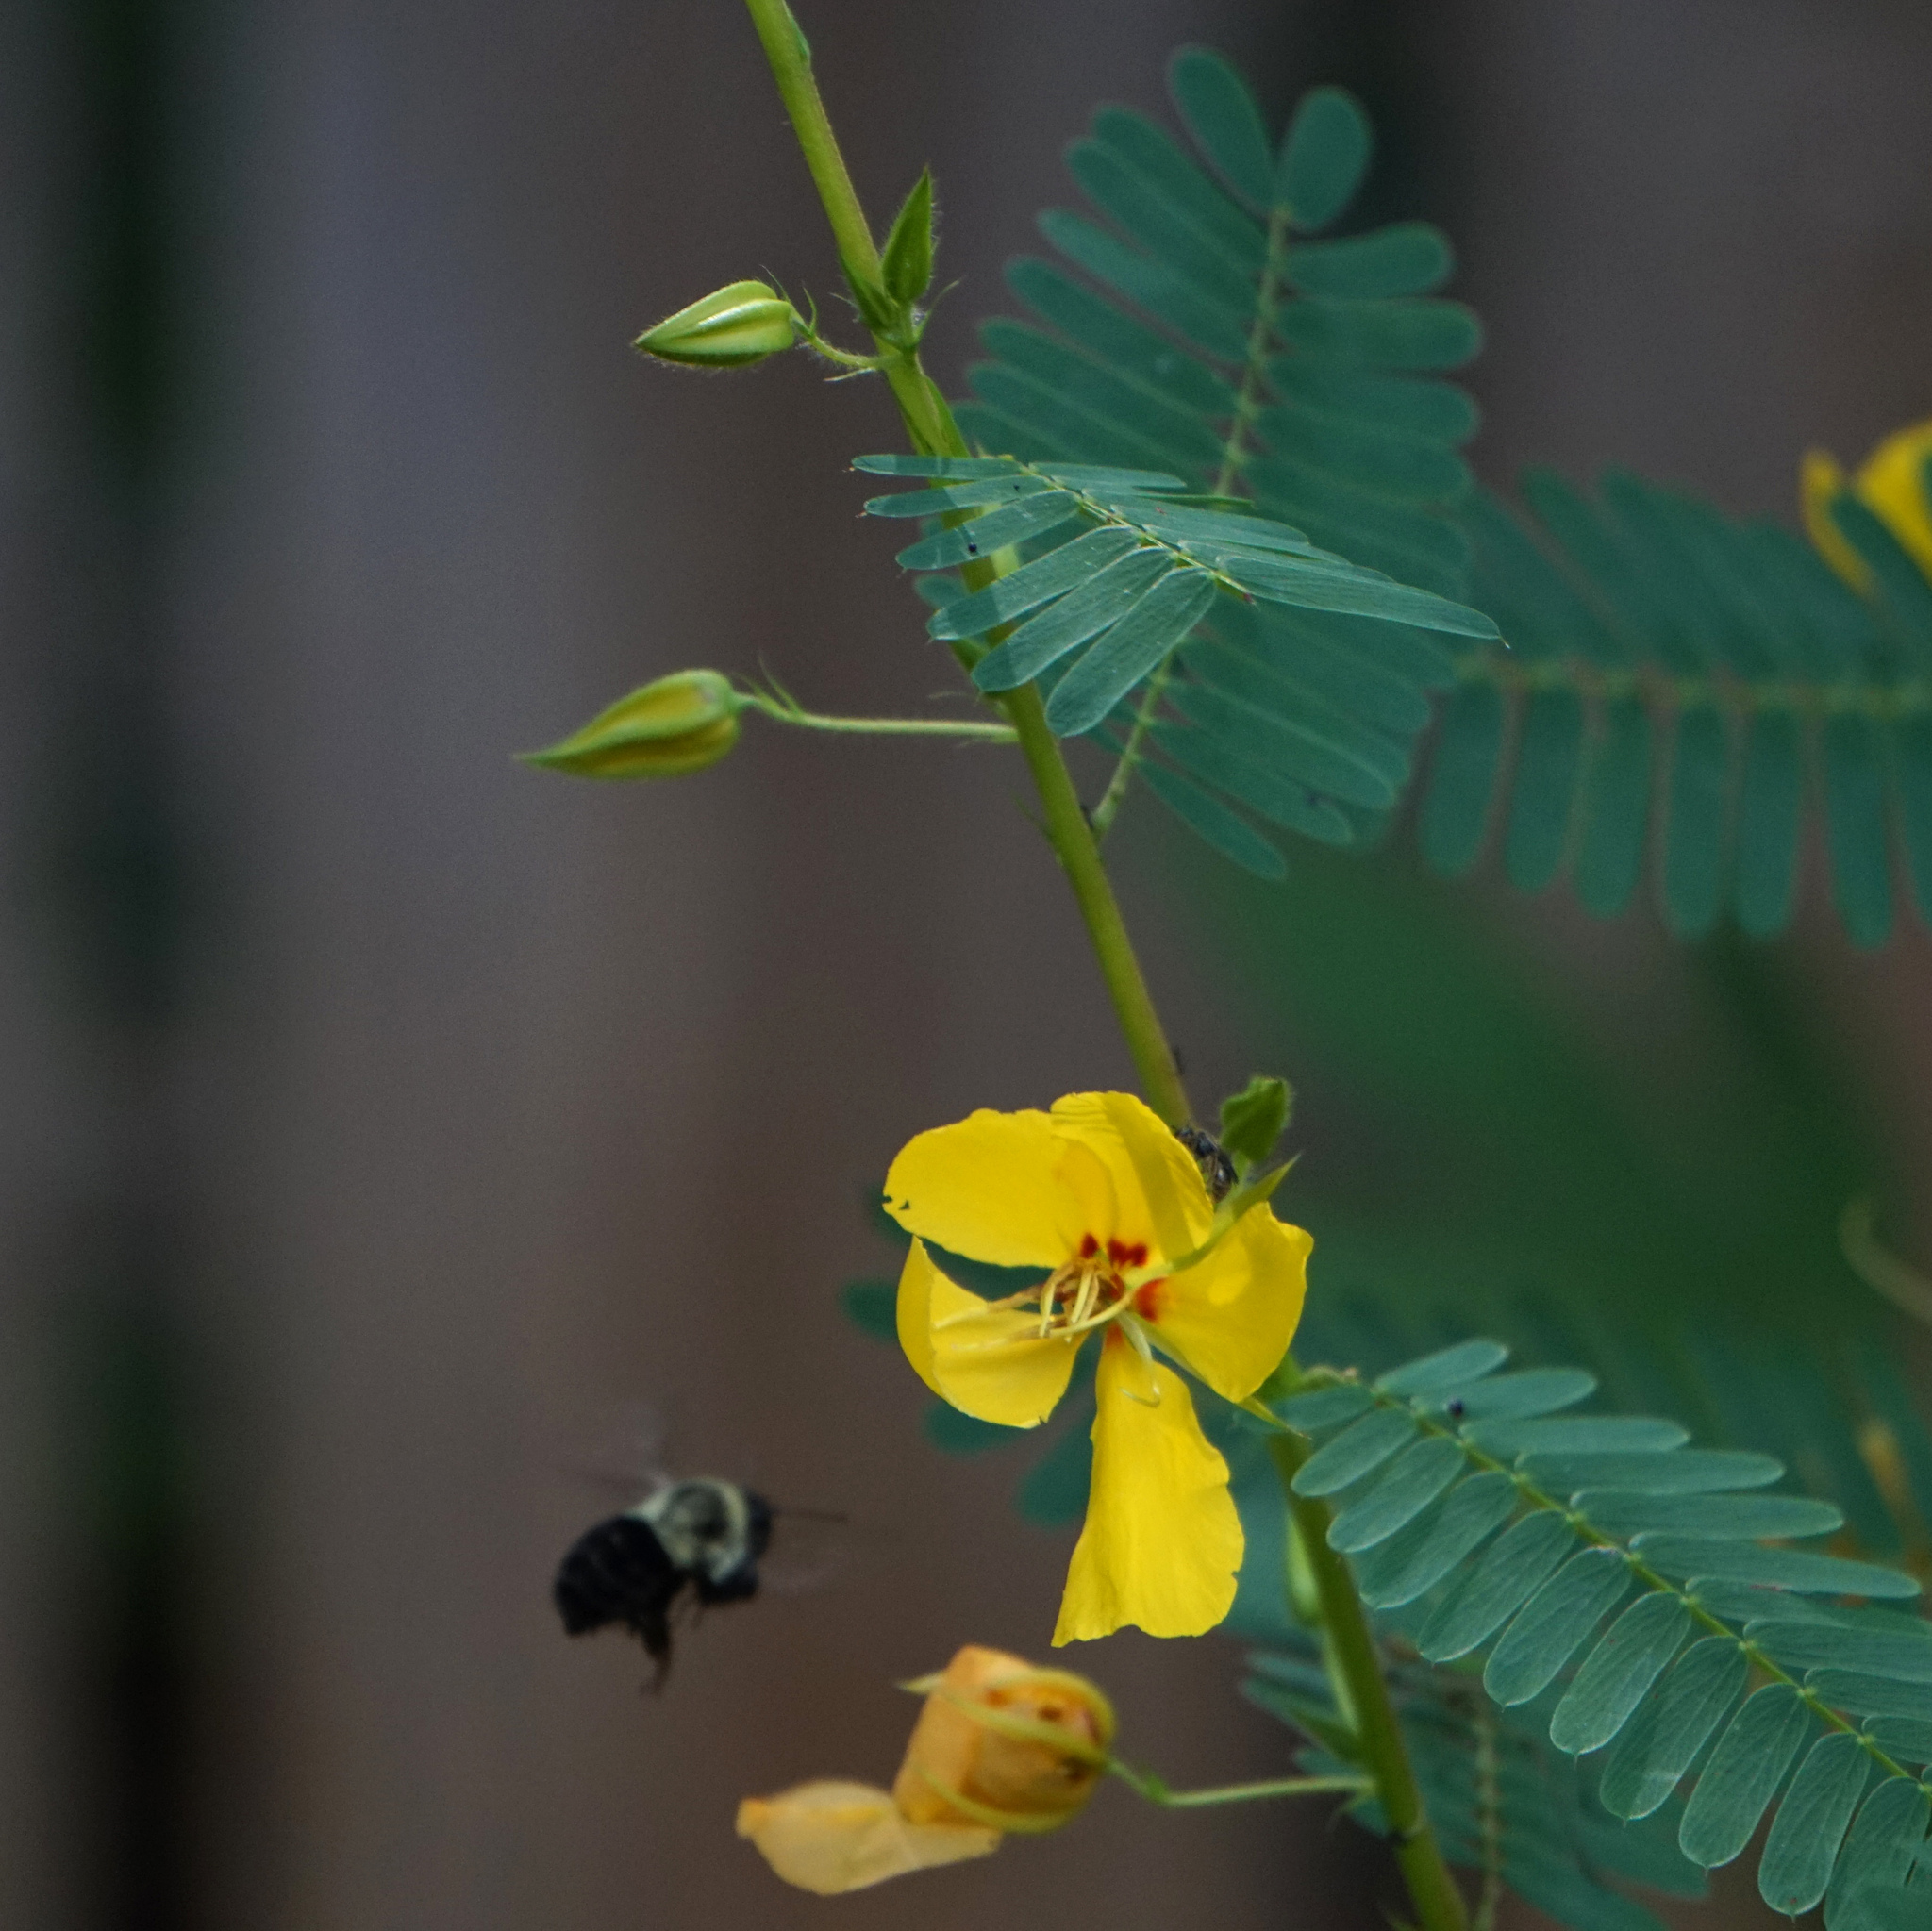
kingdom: Animalia
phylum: Arthropoda
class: Insecta
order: Hymenoptera
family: Apidae
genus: Bombus
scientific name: Bombus impatiens
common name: Common eastern bumble bee
